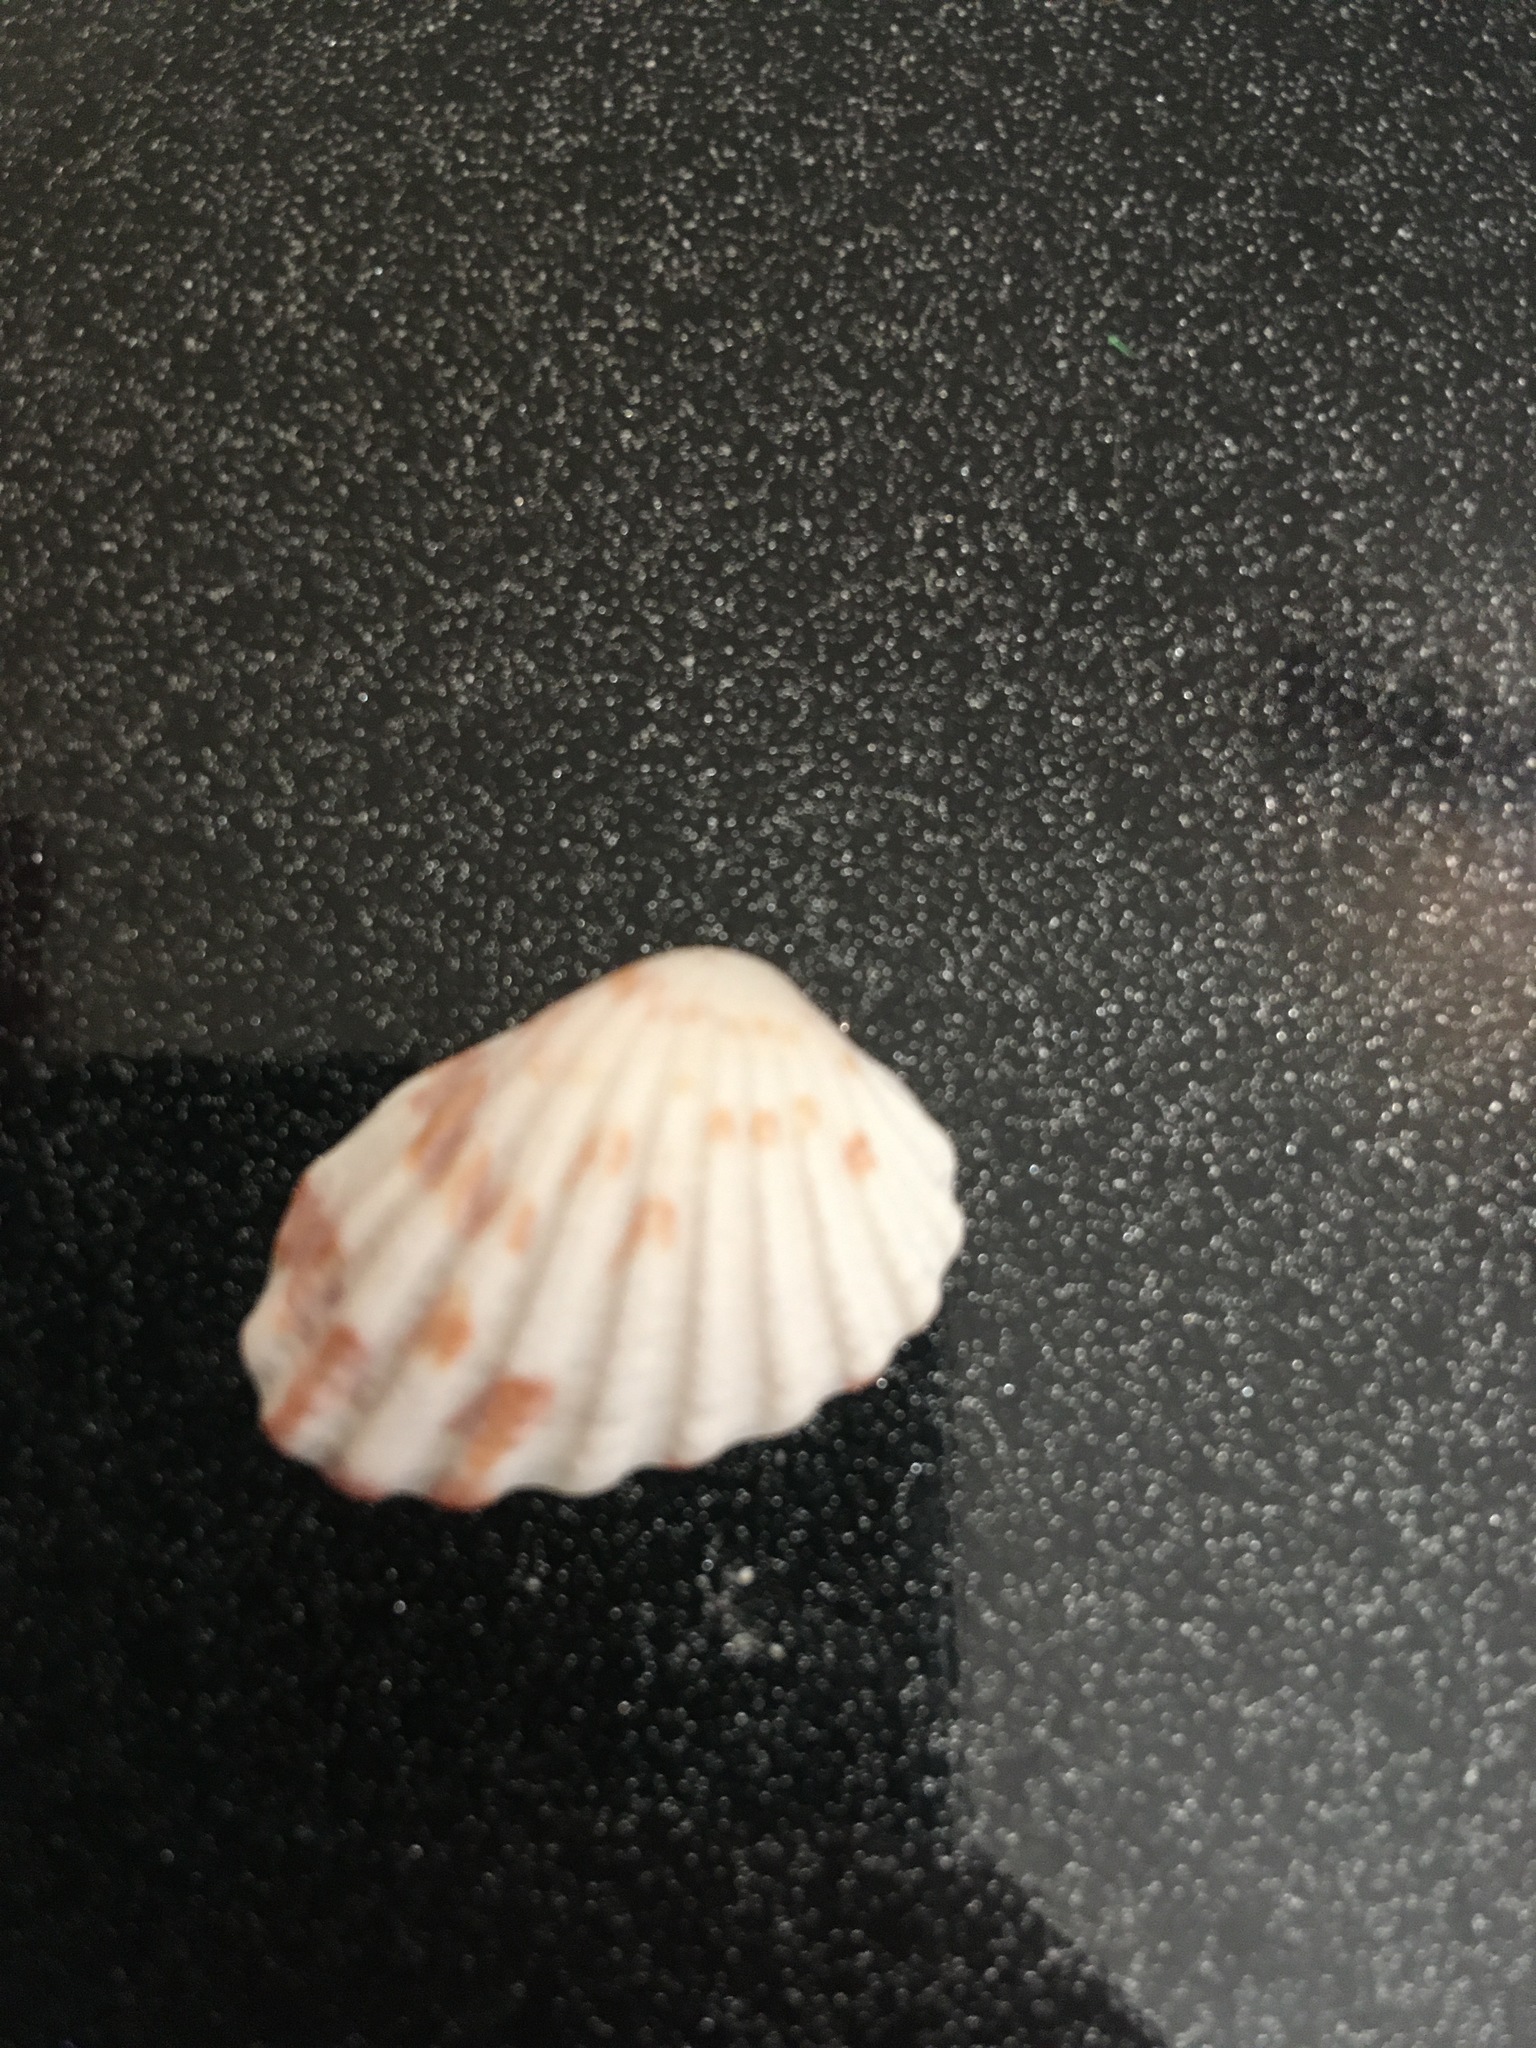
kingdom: Animalia
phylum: Mollusca
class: Bivalvia
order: Carditida
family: Carditidae
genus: Cardites
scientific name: Cardites floridanus
